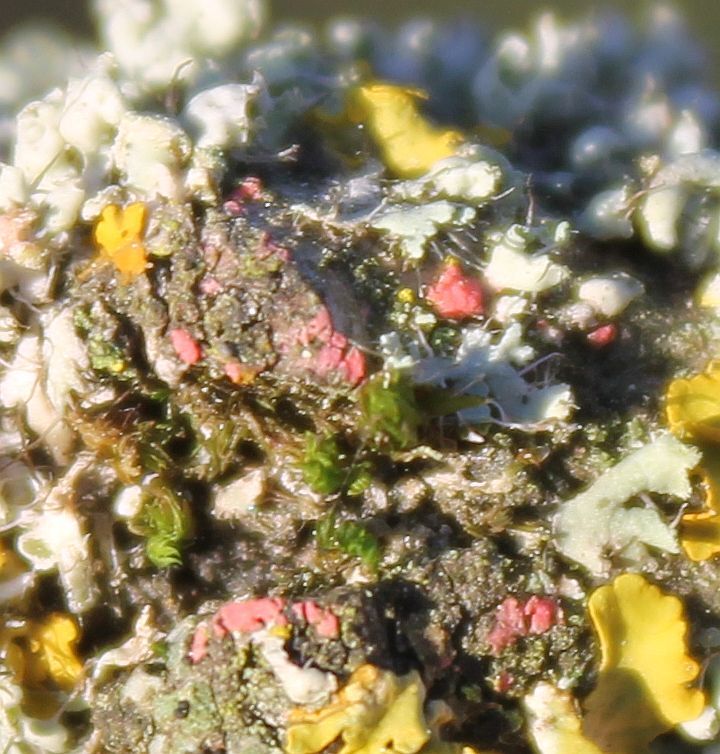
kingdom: Fungi
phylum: Ascomycota
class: Sordariomycetes
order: Hypocreales
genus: Illosporiopsis
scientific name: Illosporiopsis christiansenii
